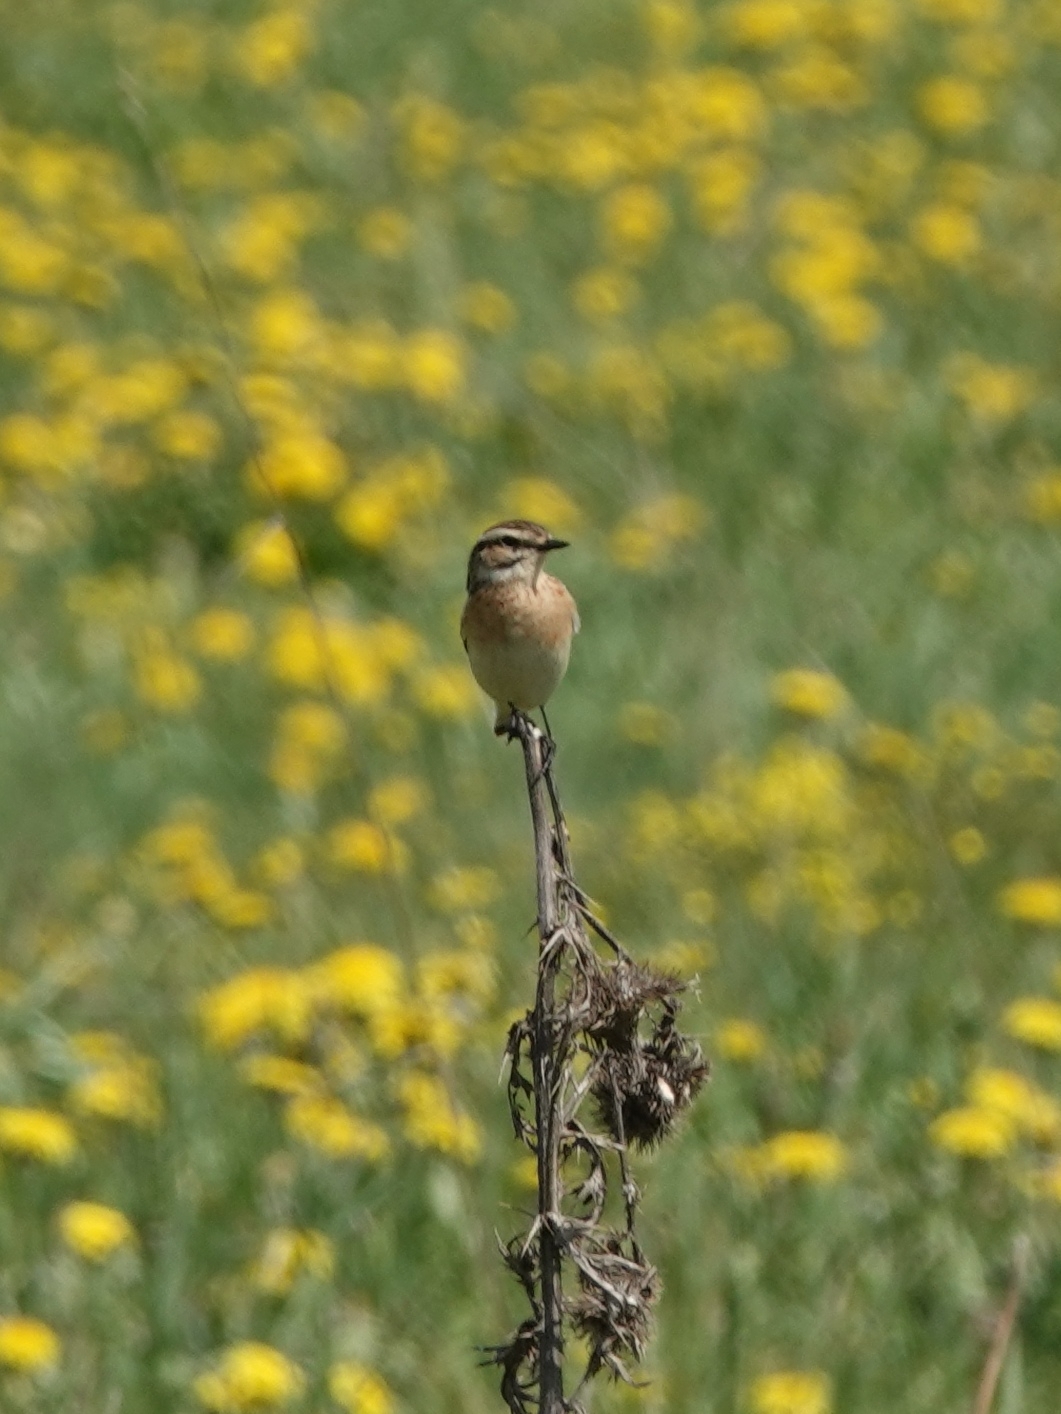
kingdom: Animalia
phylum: Chordata
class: Aves
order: Passeriformes
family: Muscicapidae
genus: Saxicola
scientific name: Saxicola rubetra
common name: Whinchat
